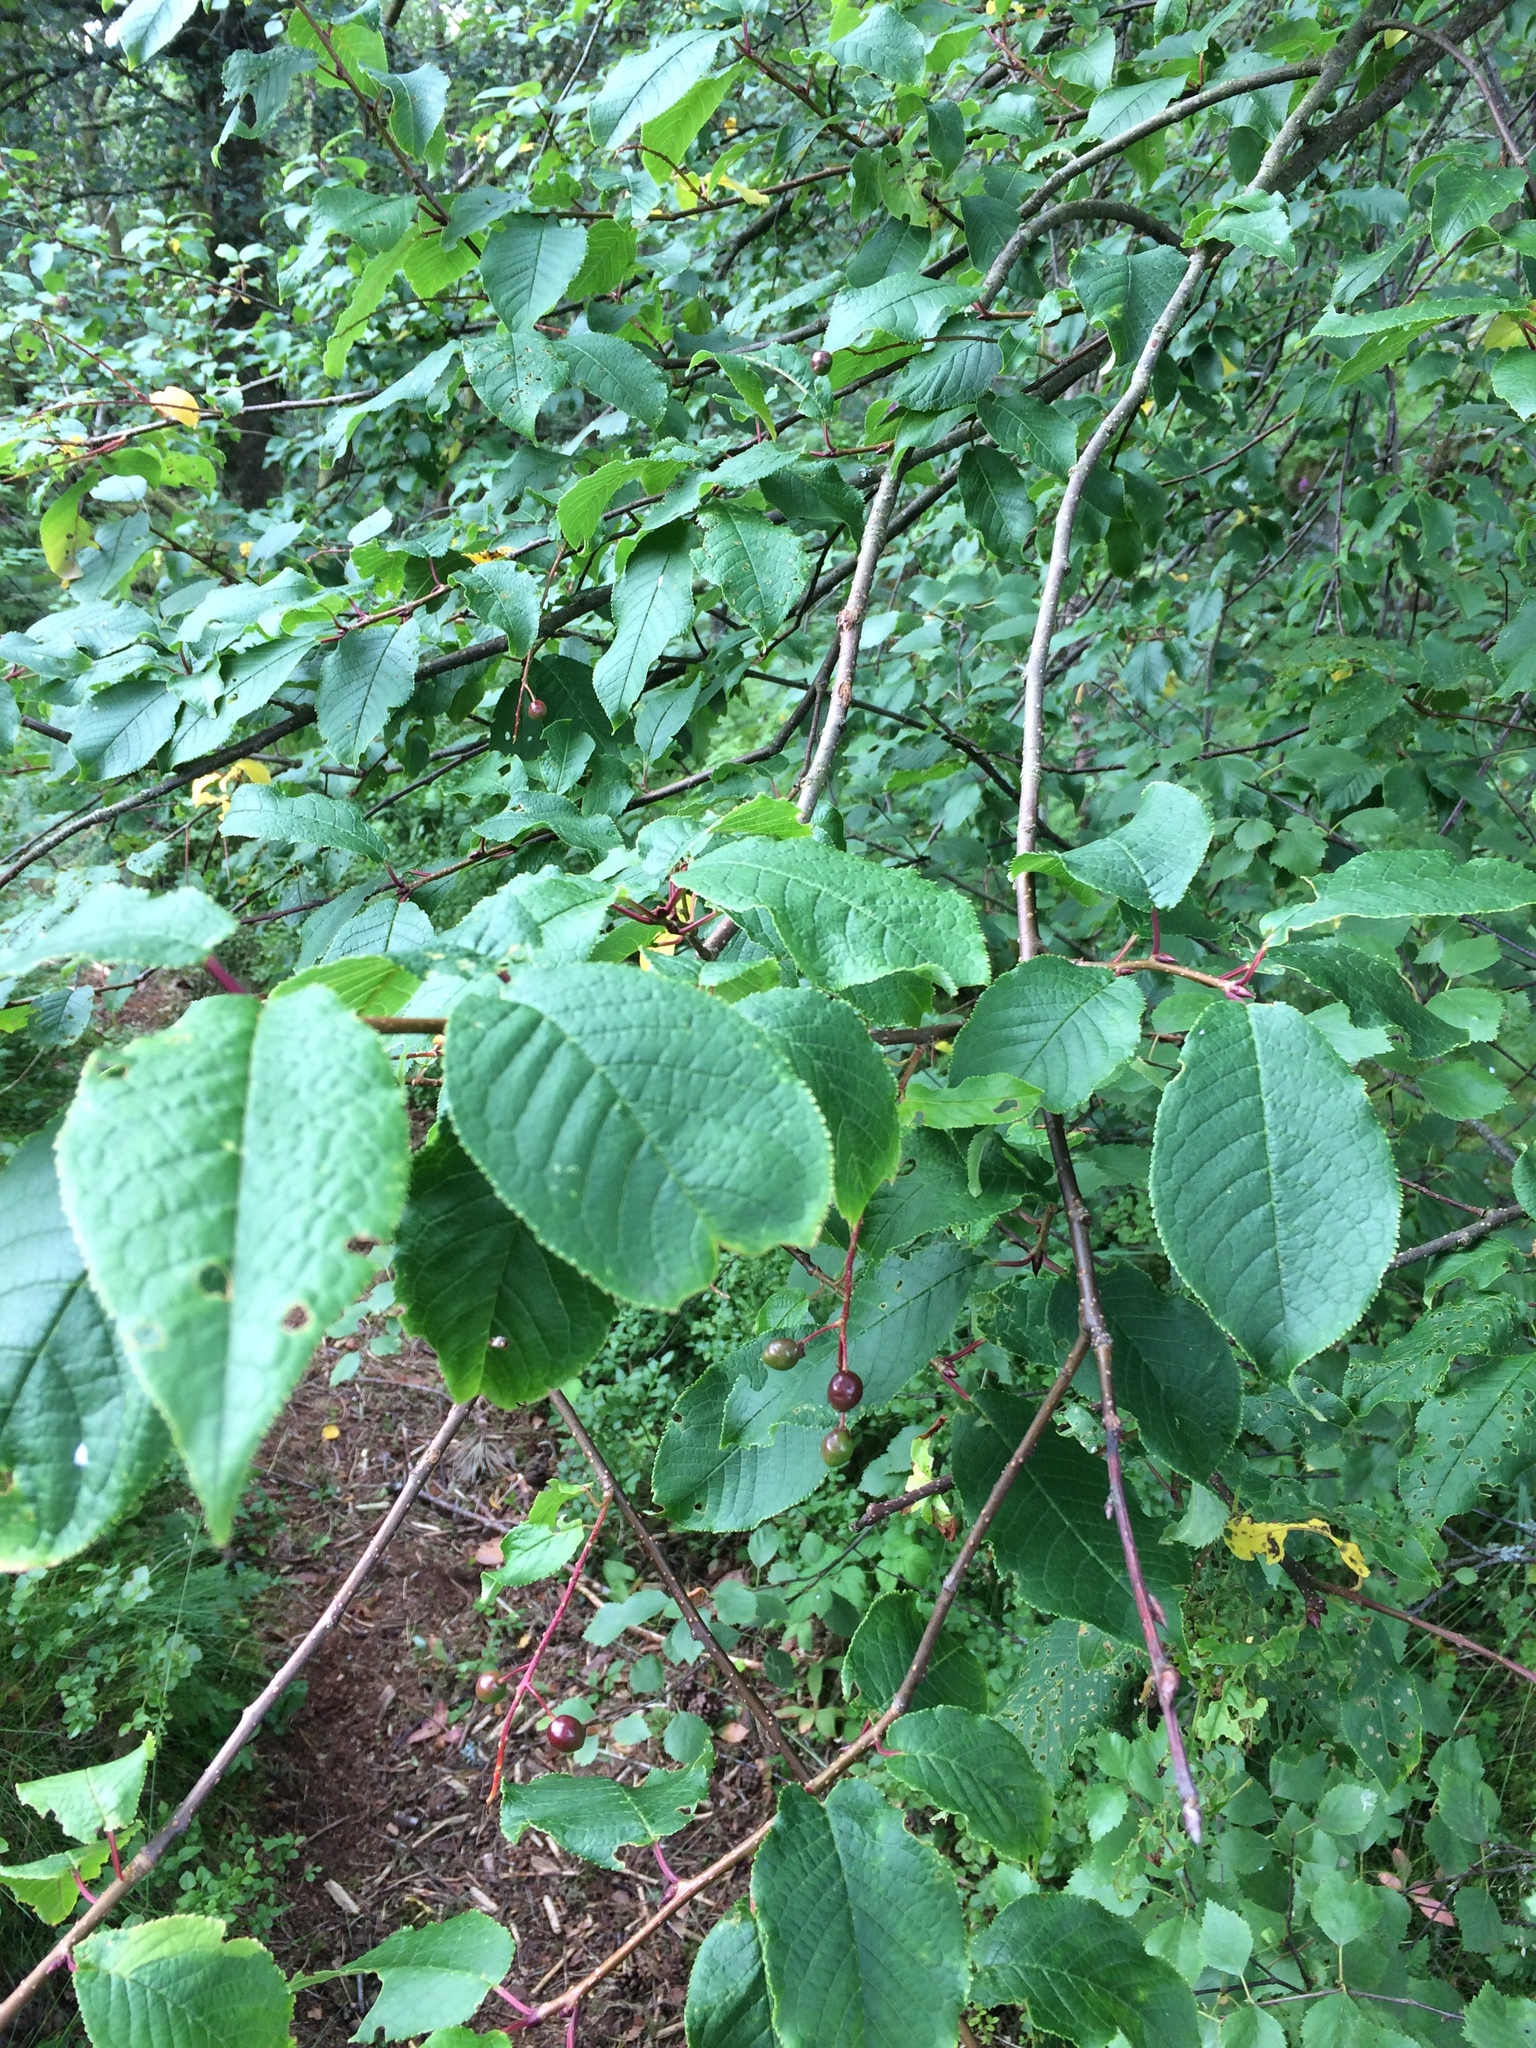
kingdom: Plantae
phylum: Tracheophyta
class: Magnoliopsida
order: Rosales
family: Rosaceae
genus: Prunus
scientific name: Prunus padus
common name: Bird cherry
